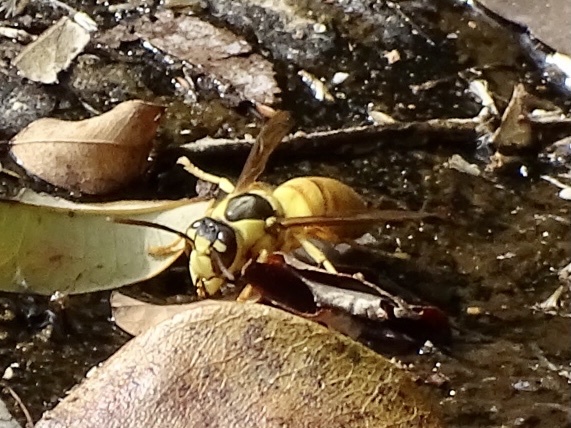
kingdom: Animalia
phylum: Arthropoda
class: Insecta
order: Hymenoptera
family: Vespidae
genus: Vespa
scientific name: Vespa bicolor
